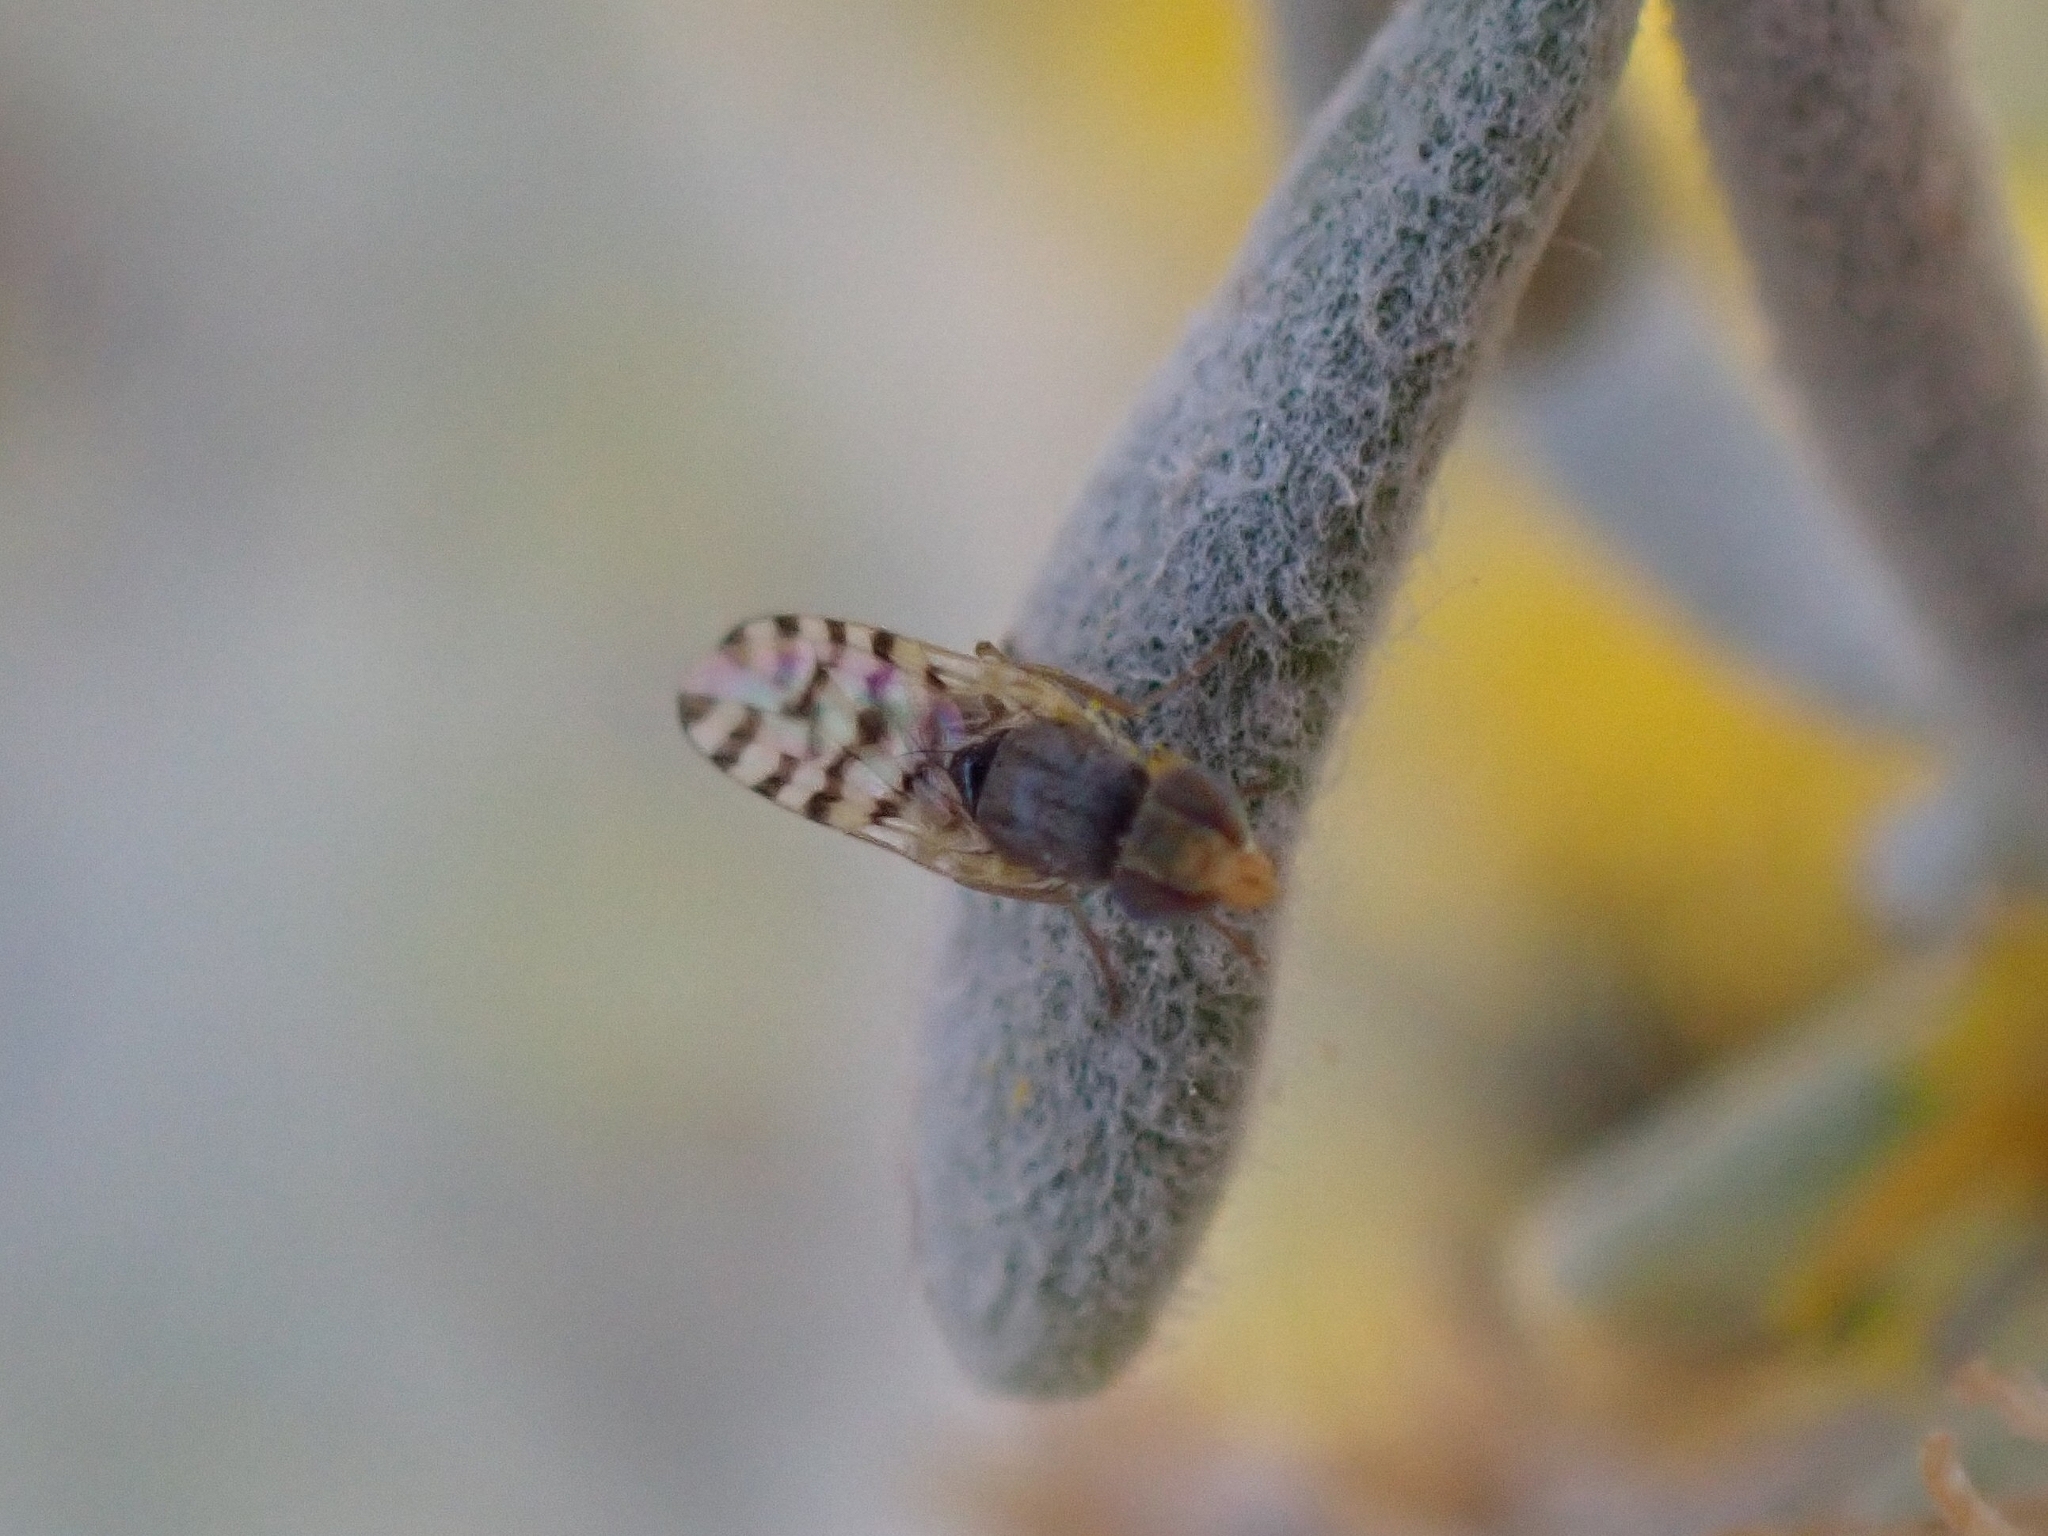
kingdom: Animalia
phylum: Arthropoda
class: Insecta
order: Diptera
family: Tephritidae
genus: Myopites
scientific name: Myopites nigrescens
